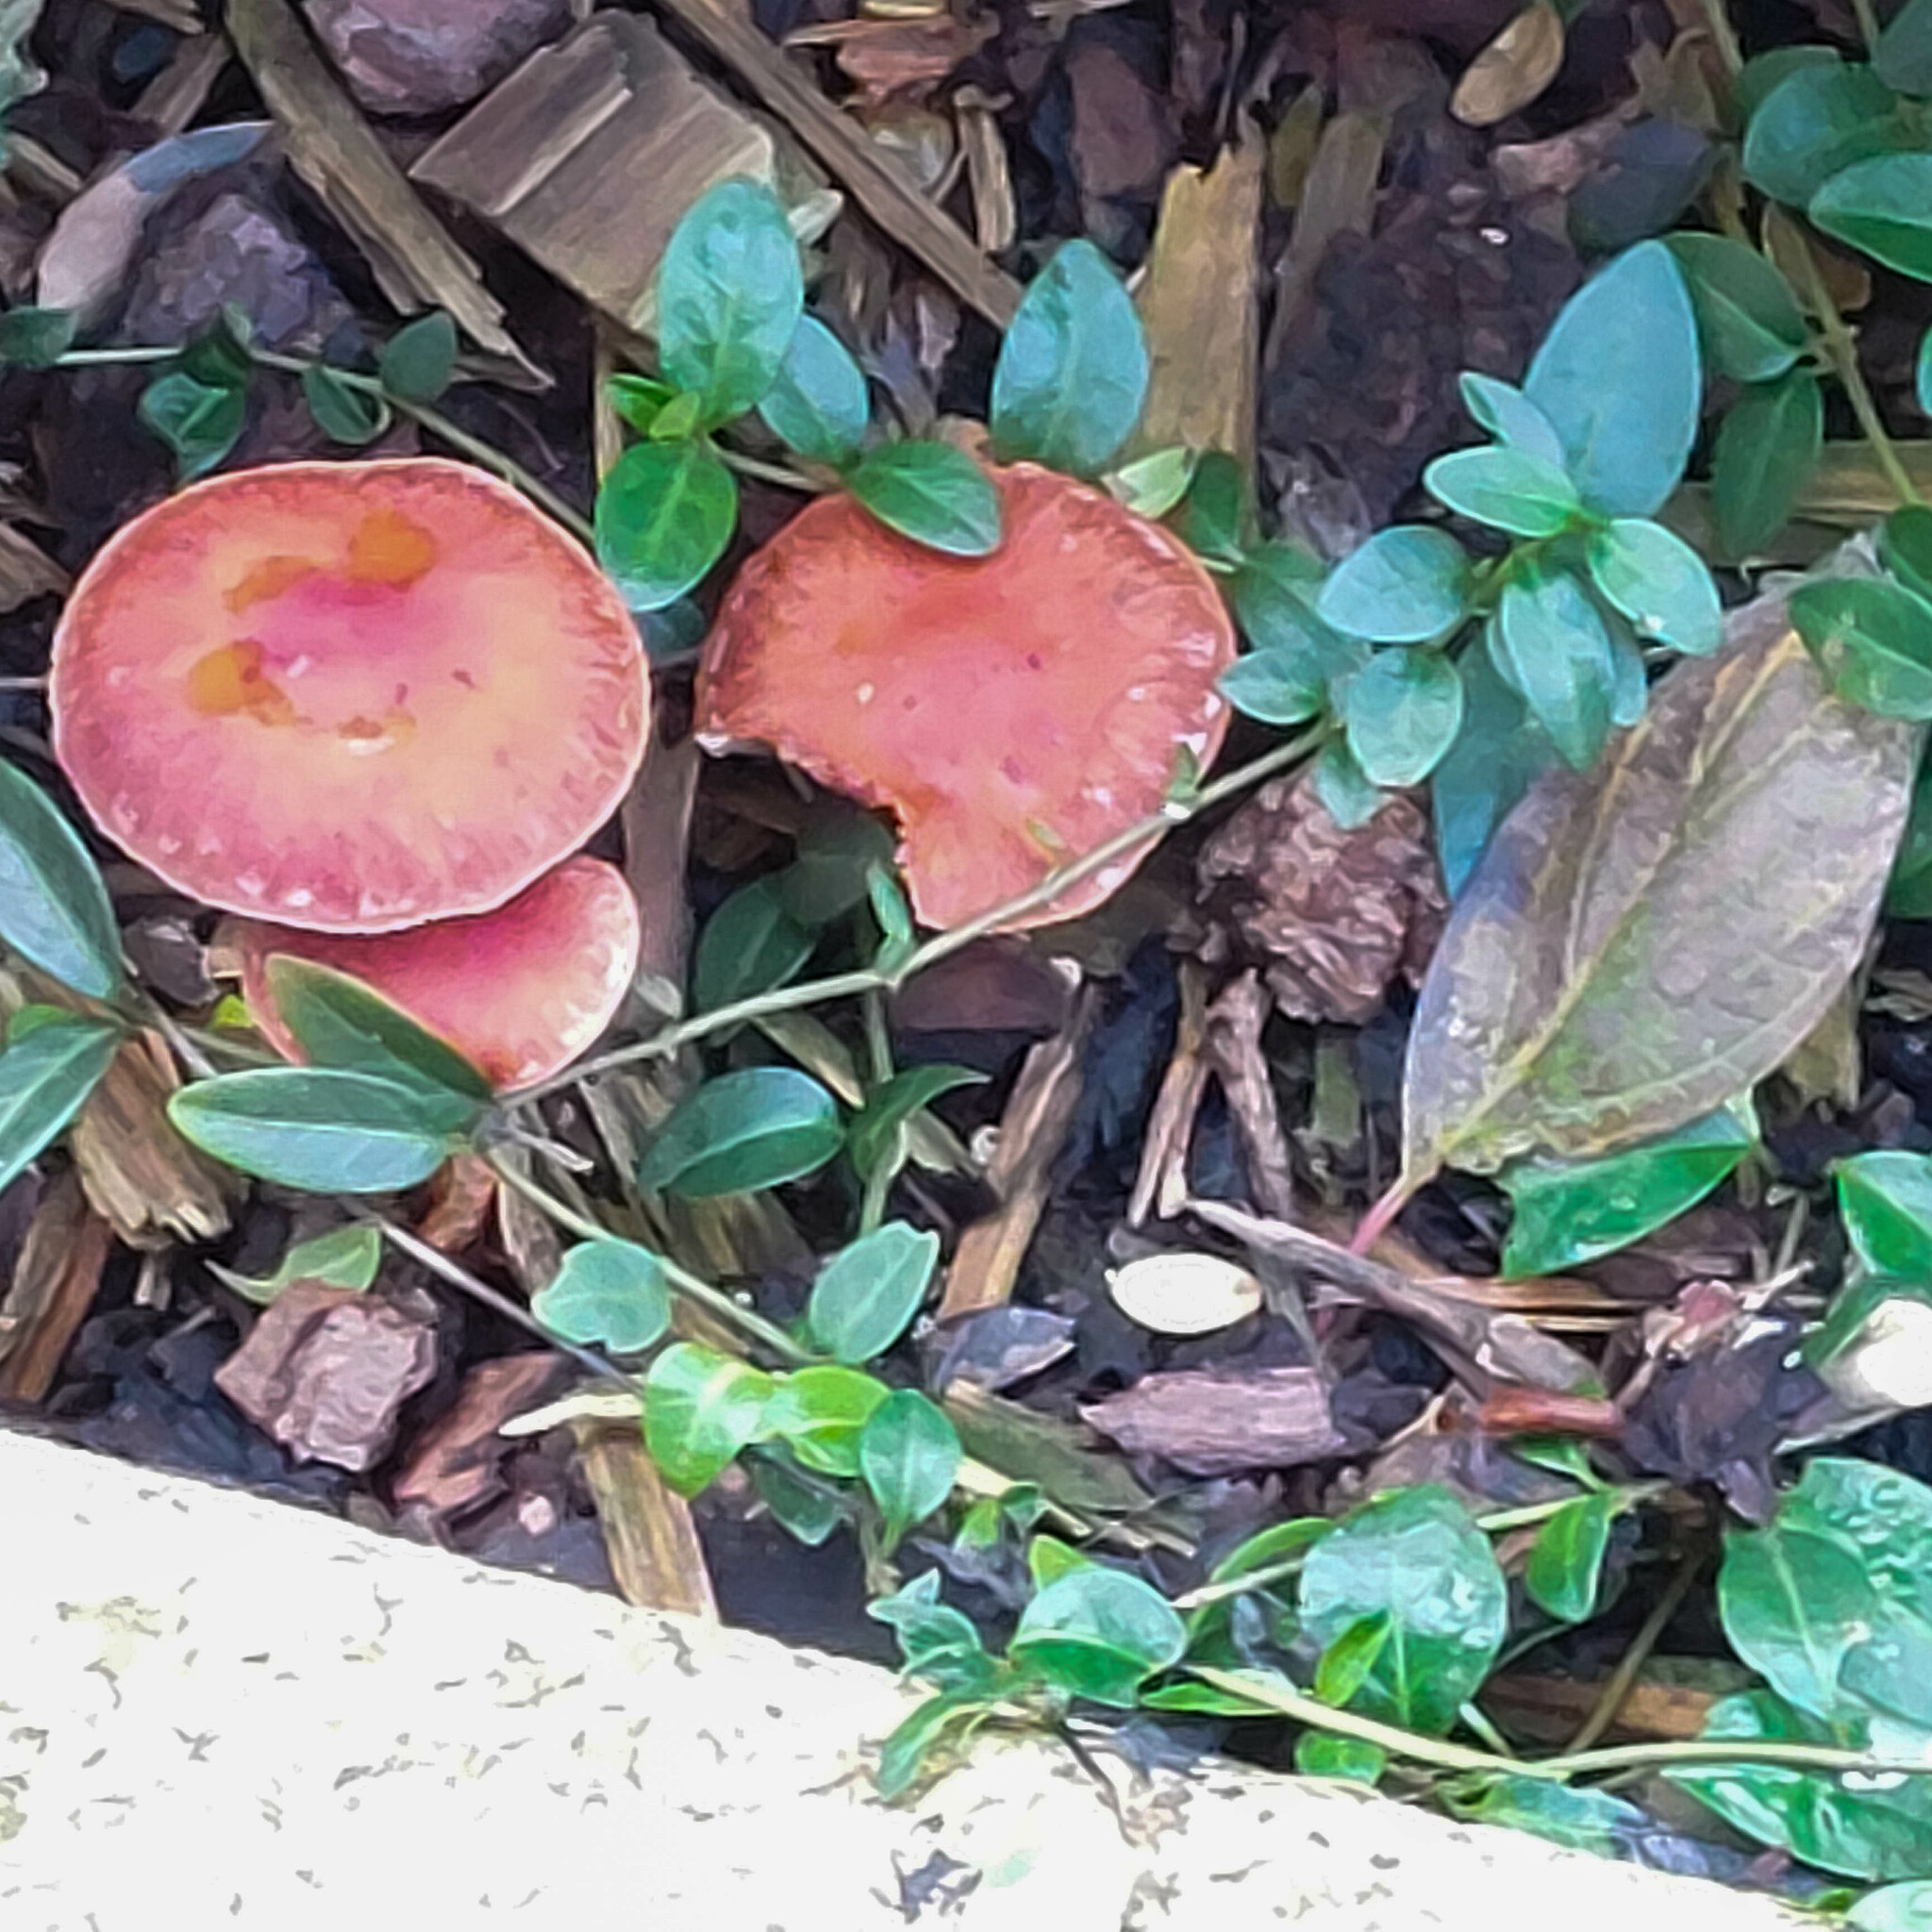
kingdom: Fungi
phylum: Basidiomycota
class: Agaricomycetes
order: Agaricales
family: Strophariaceae
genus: Leratiomyces
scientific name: Leratiomyces ceres
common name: Redlead roundhead
